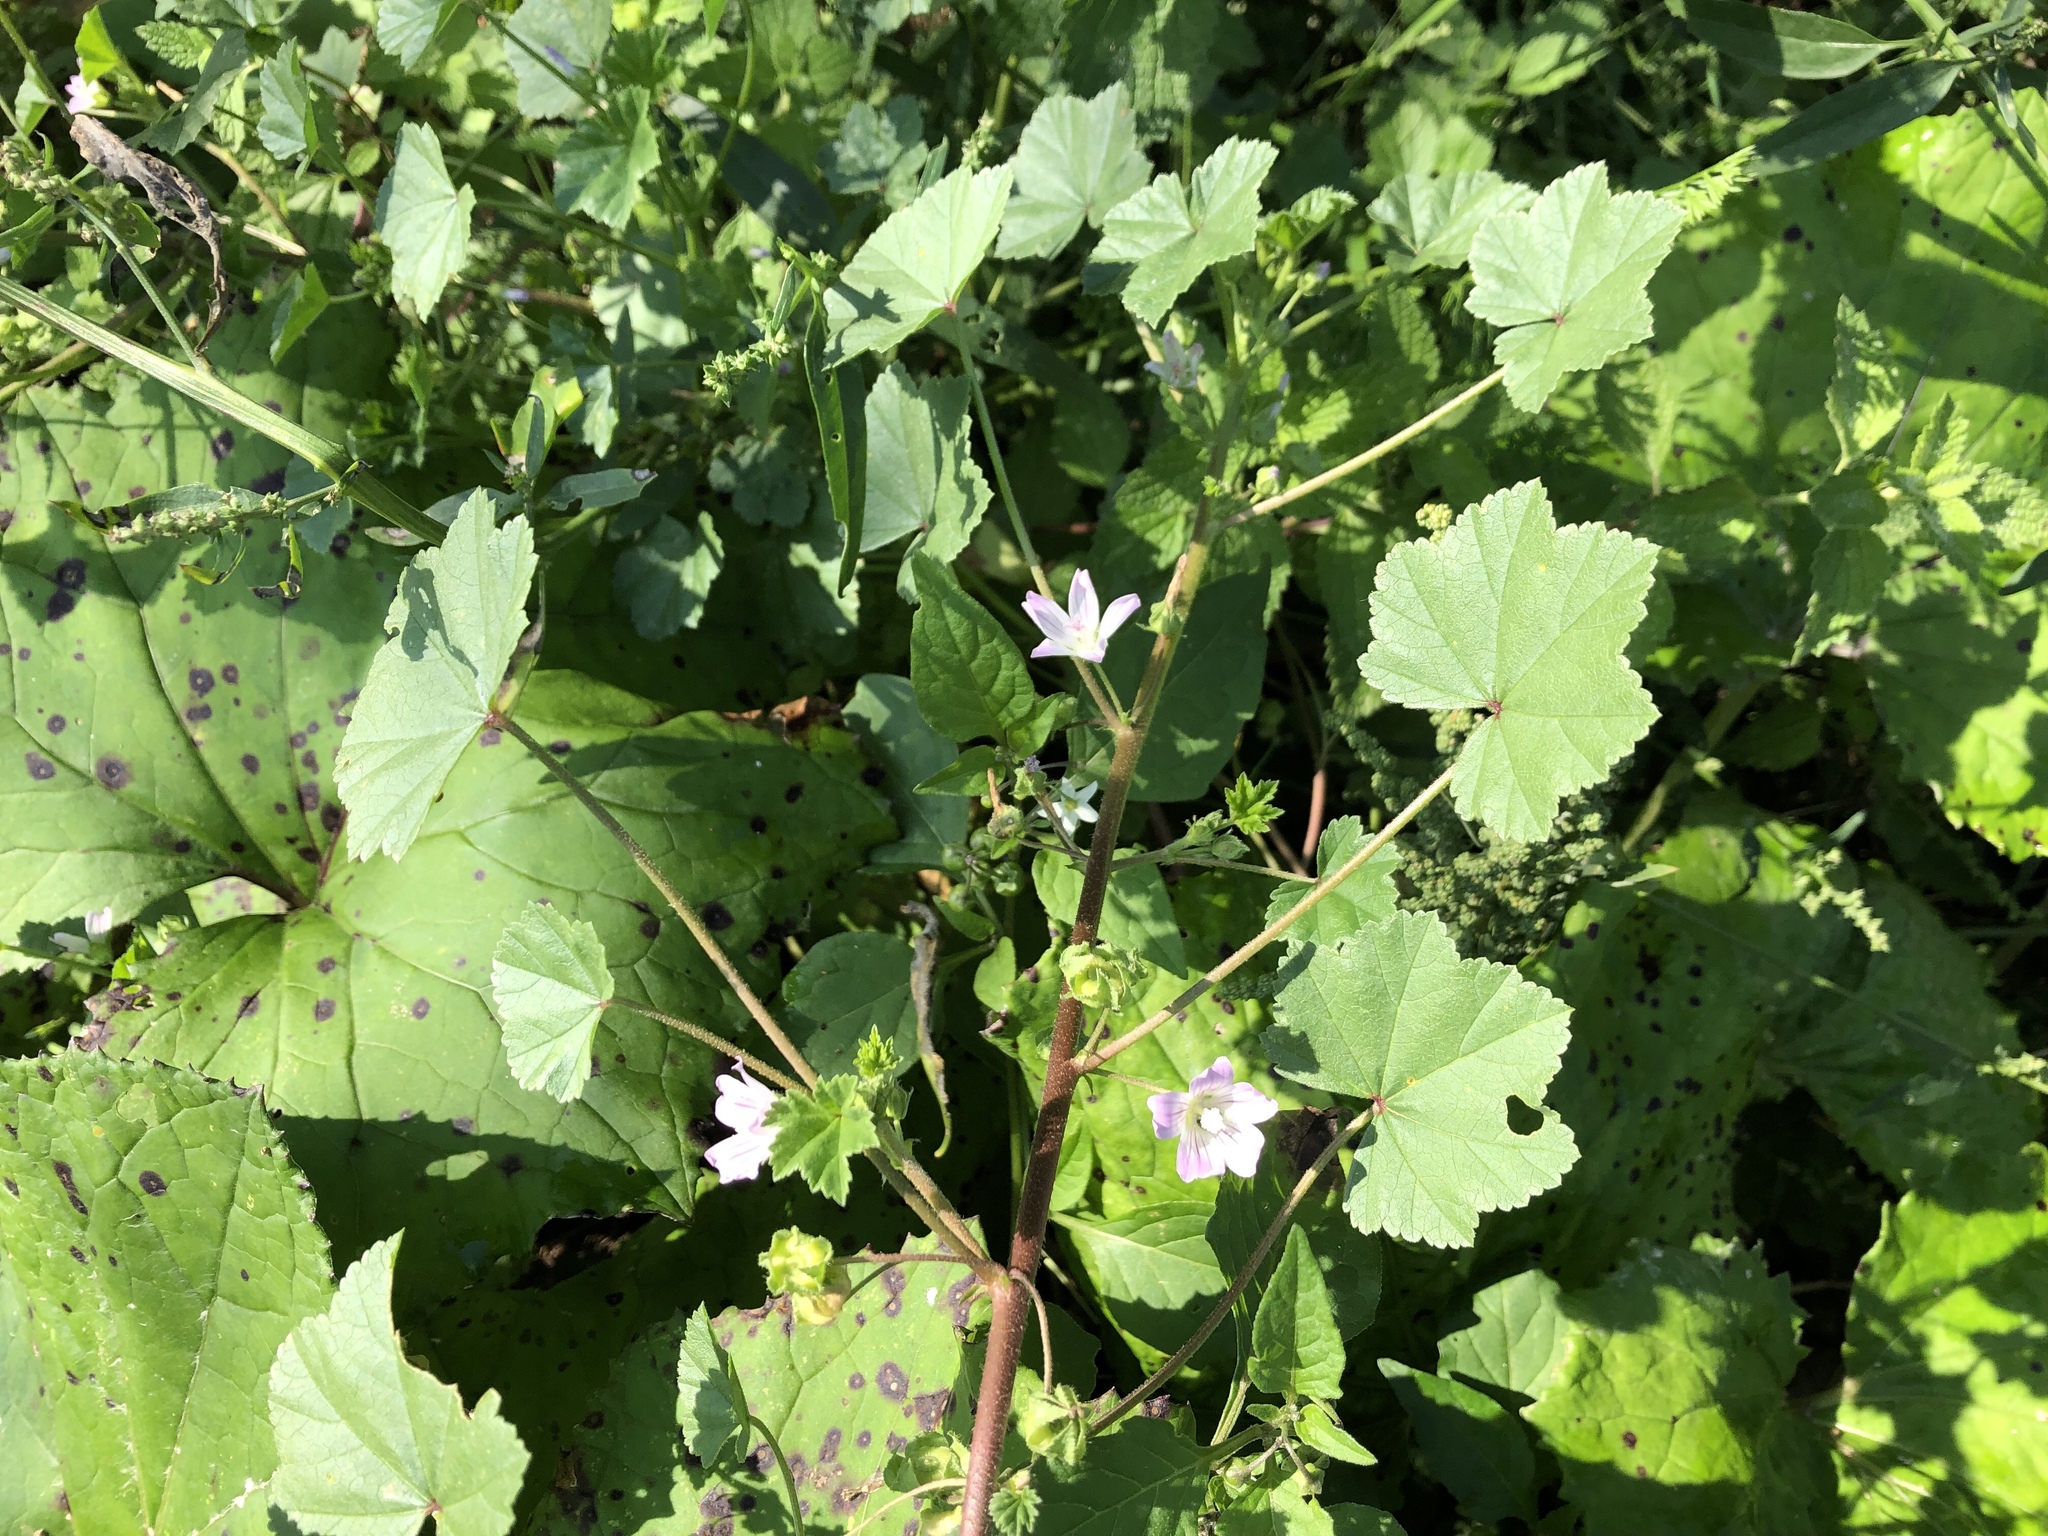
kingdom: Plantae
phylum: Tracheophyta
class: Magnoliopsida
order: Malvales
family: Malvaceae
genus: Malva
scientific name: Malva neglecta
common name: Common mallow
